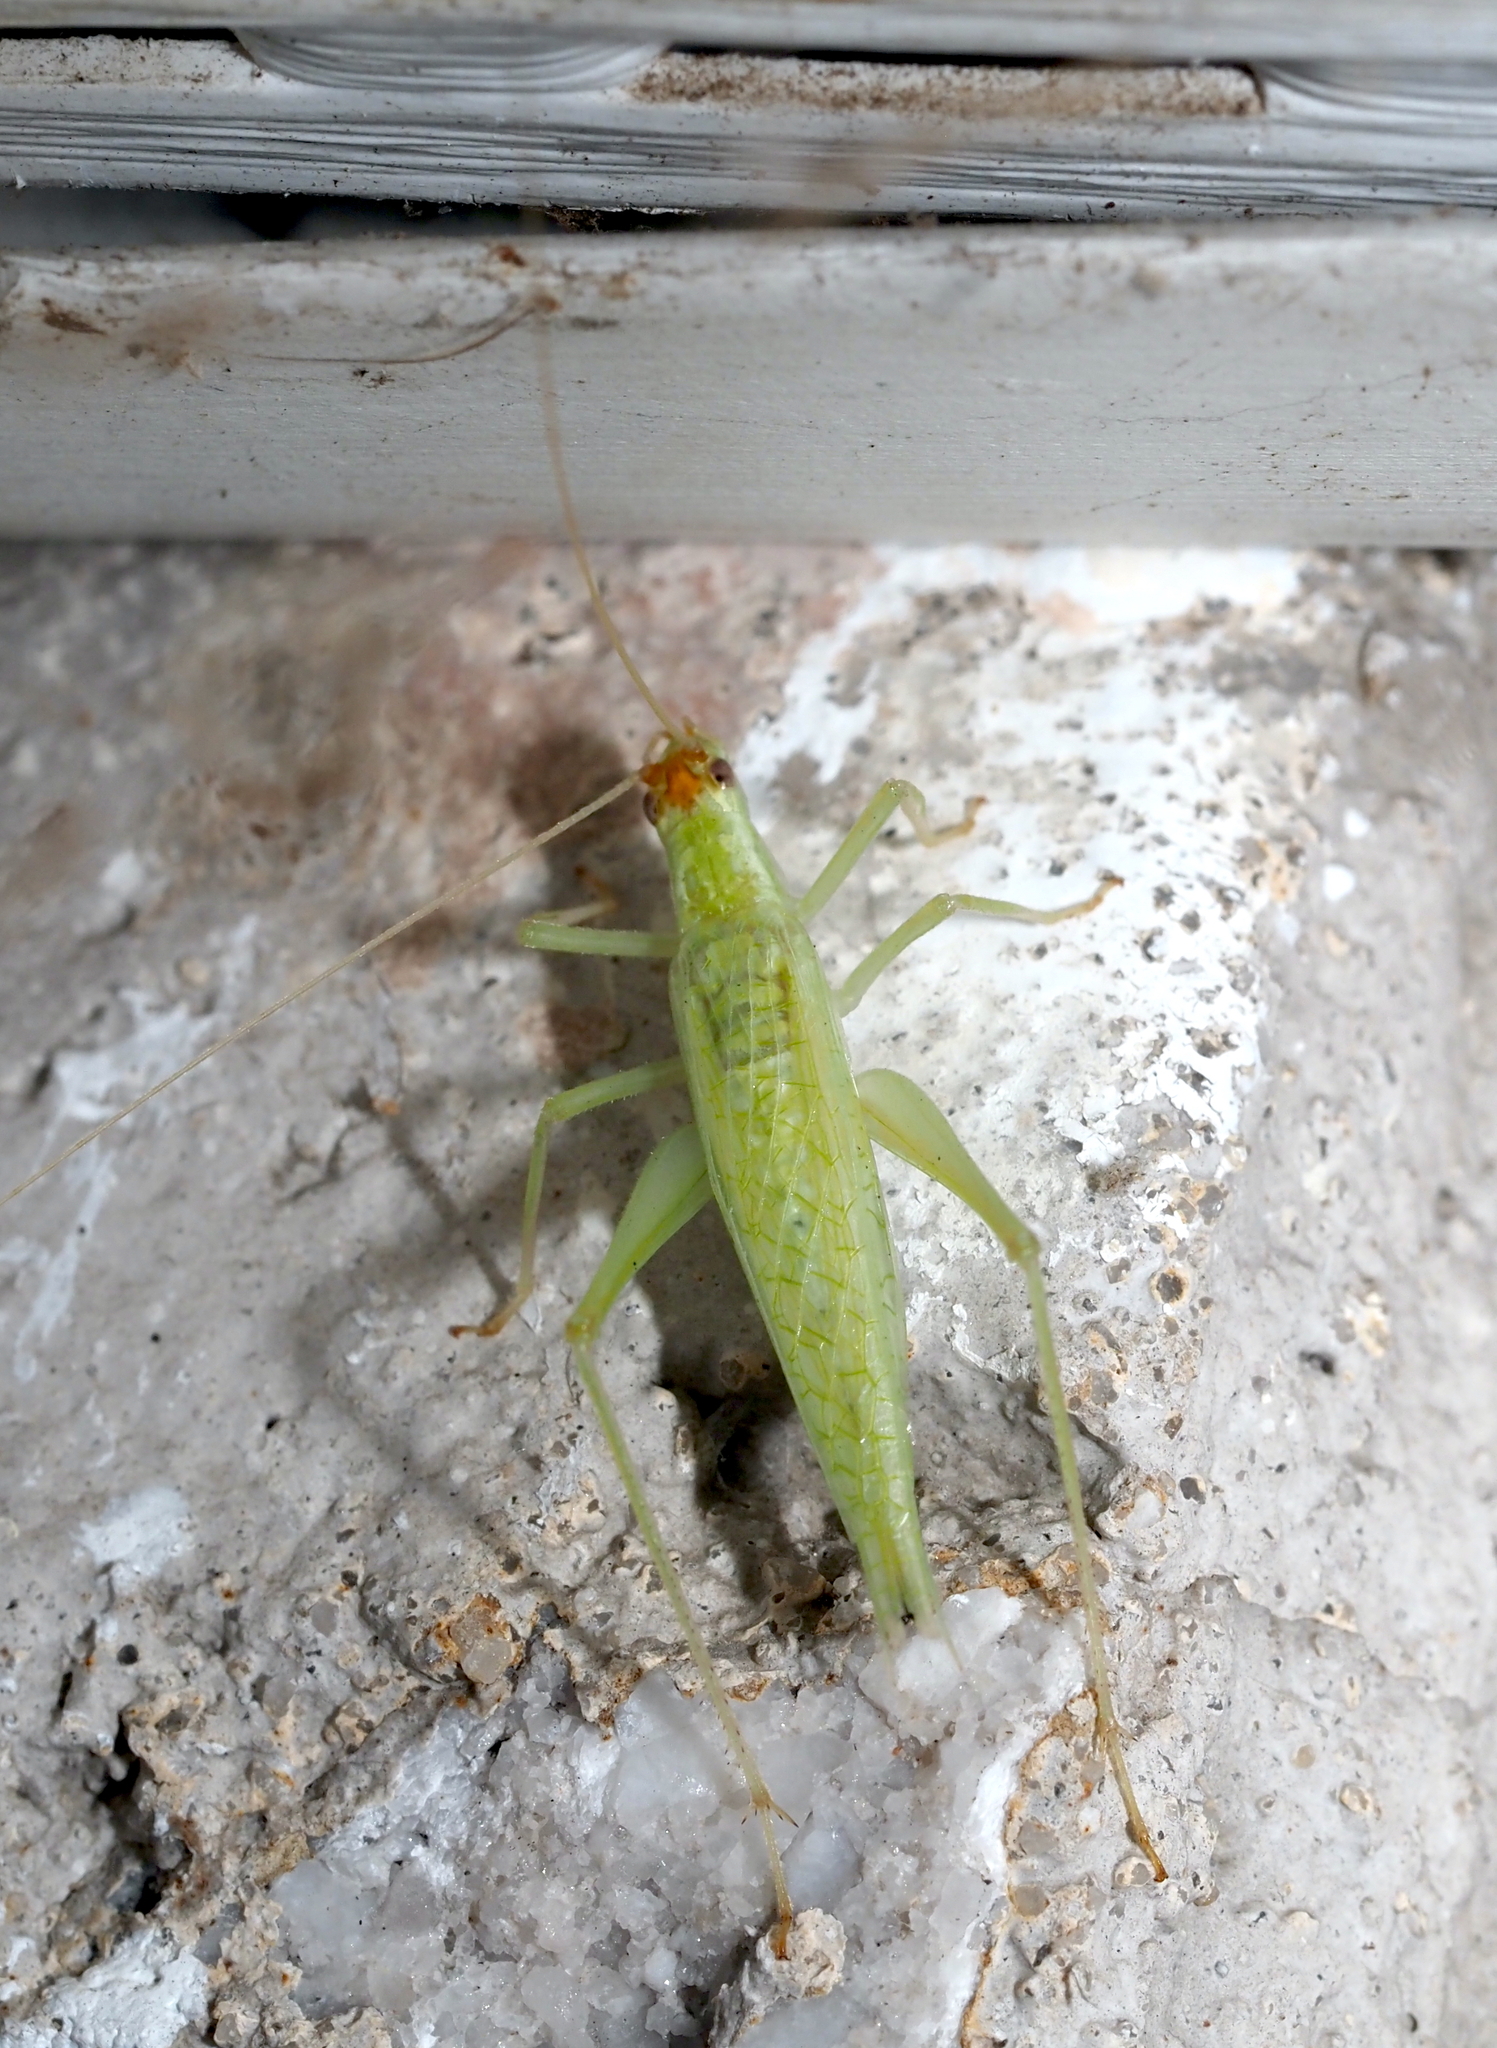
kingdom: Animalia
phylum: Arthropoda
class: Insecta
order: Orthoptera
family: Gryllidae
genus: Oecanthus
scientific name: Oecanthus fultoni
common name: Snowy tree cricket
